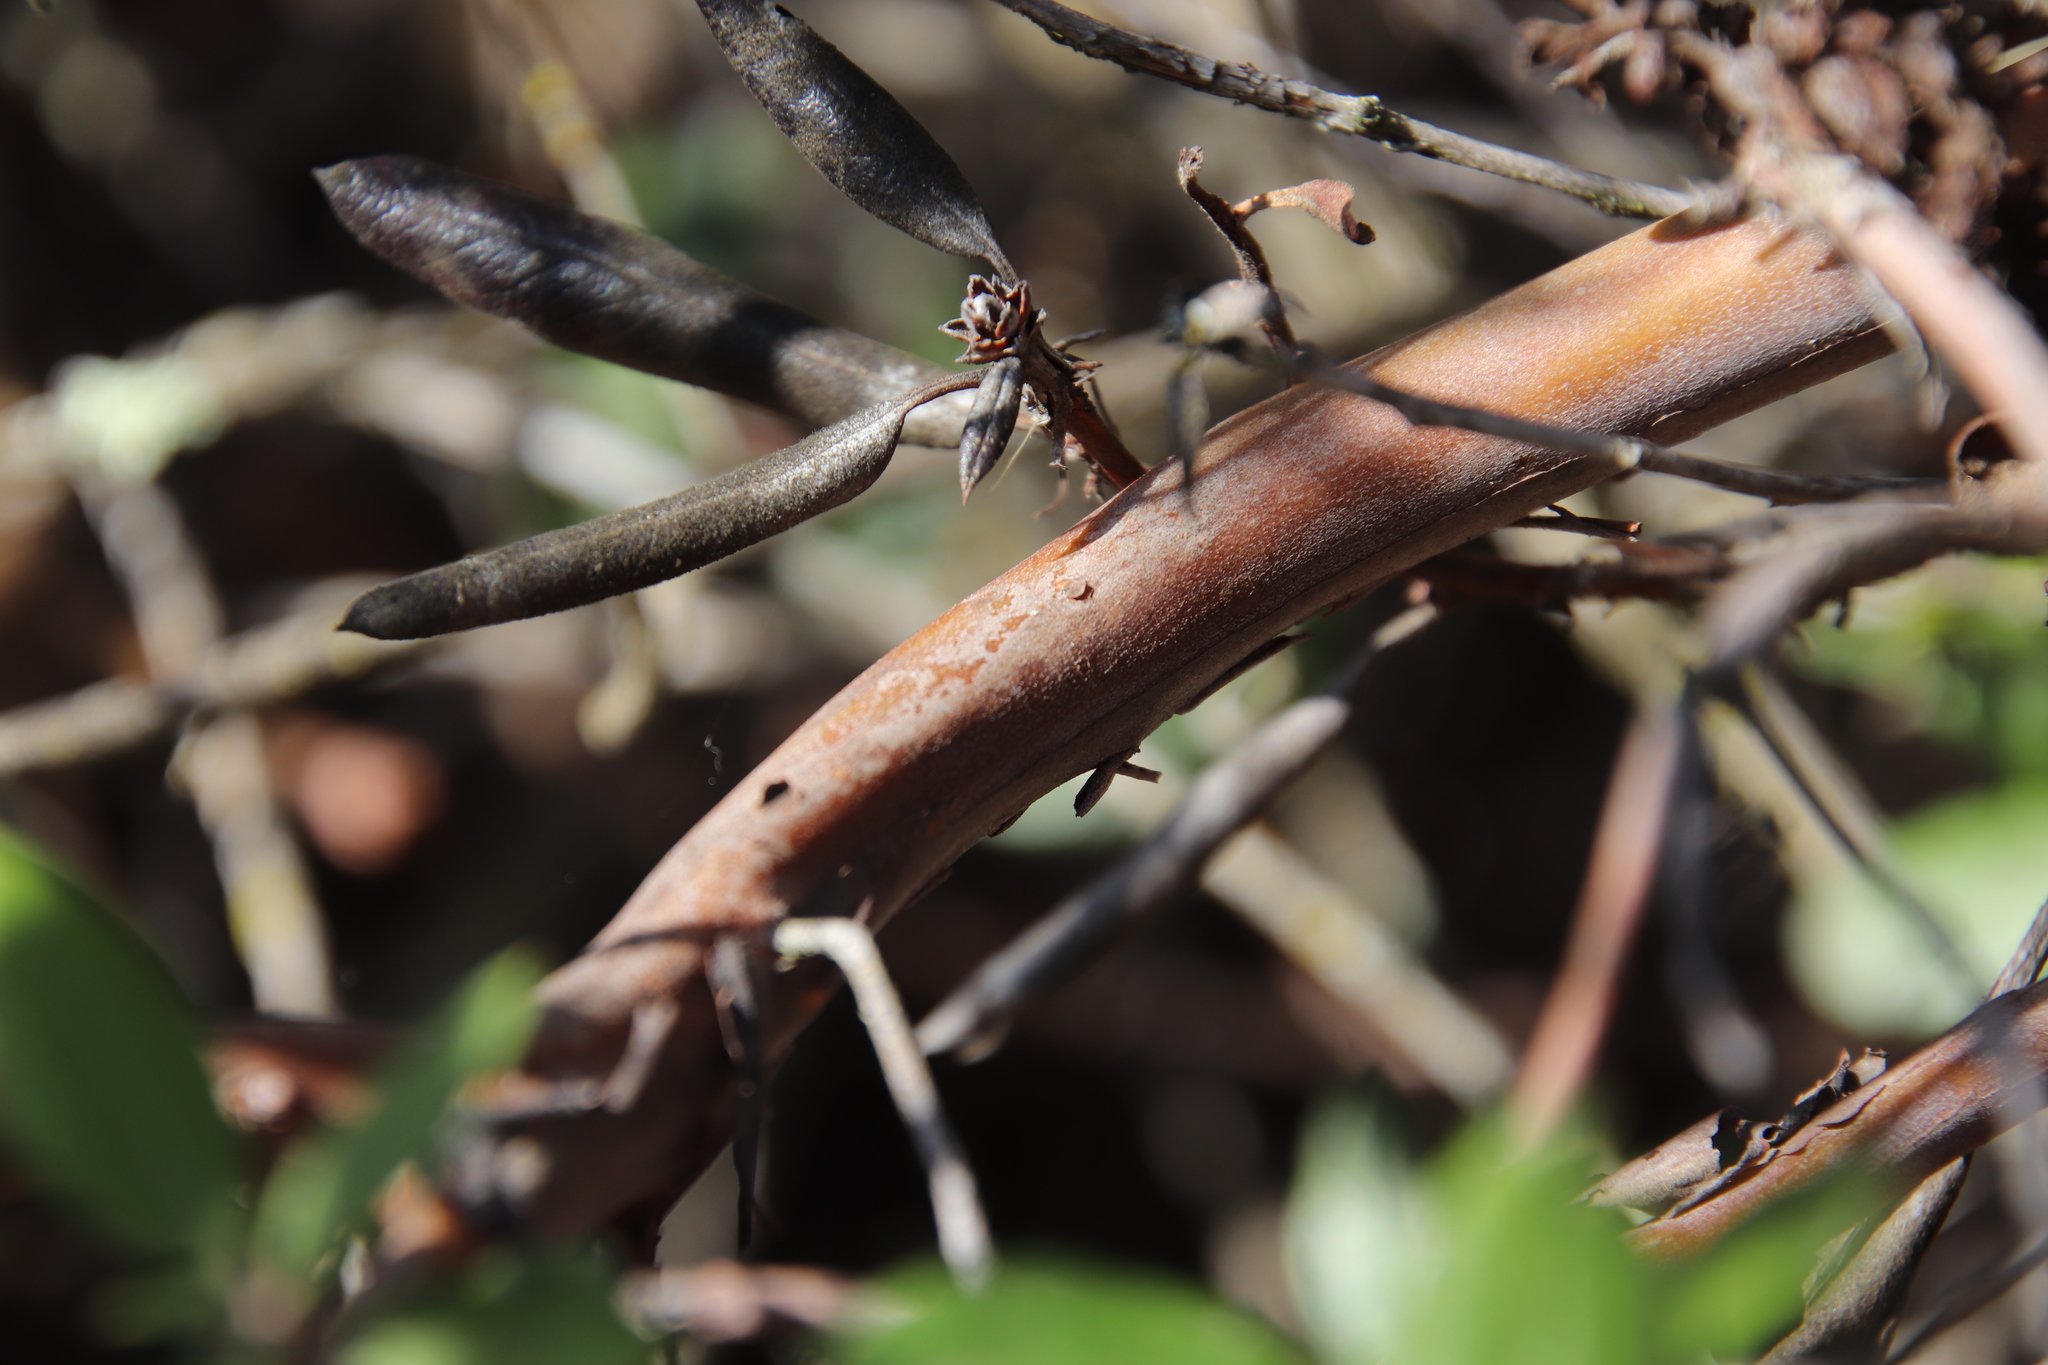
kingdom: Plantae
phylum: Tracheophyta
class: Magnoliopsida
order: Ericales
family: Ericaceae
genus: Arctostaphylos
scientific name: Arctostaphylos bicolor
